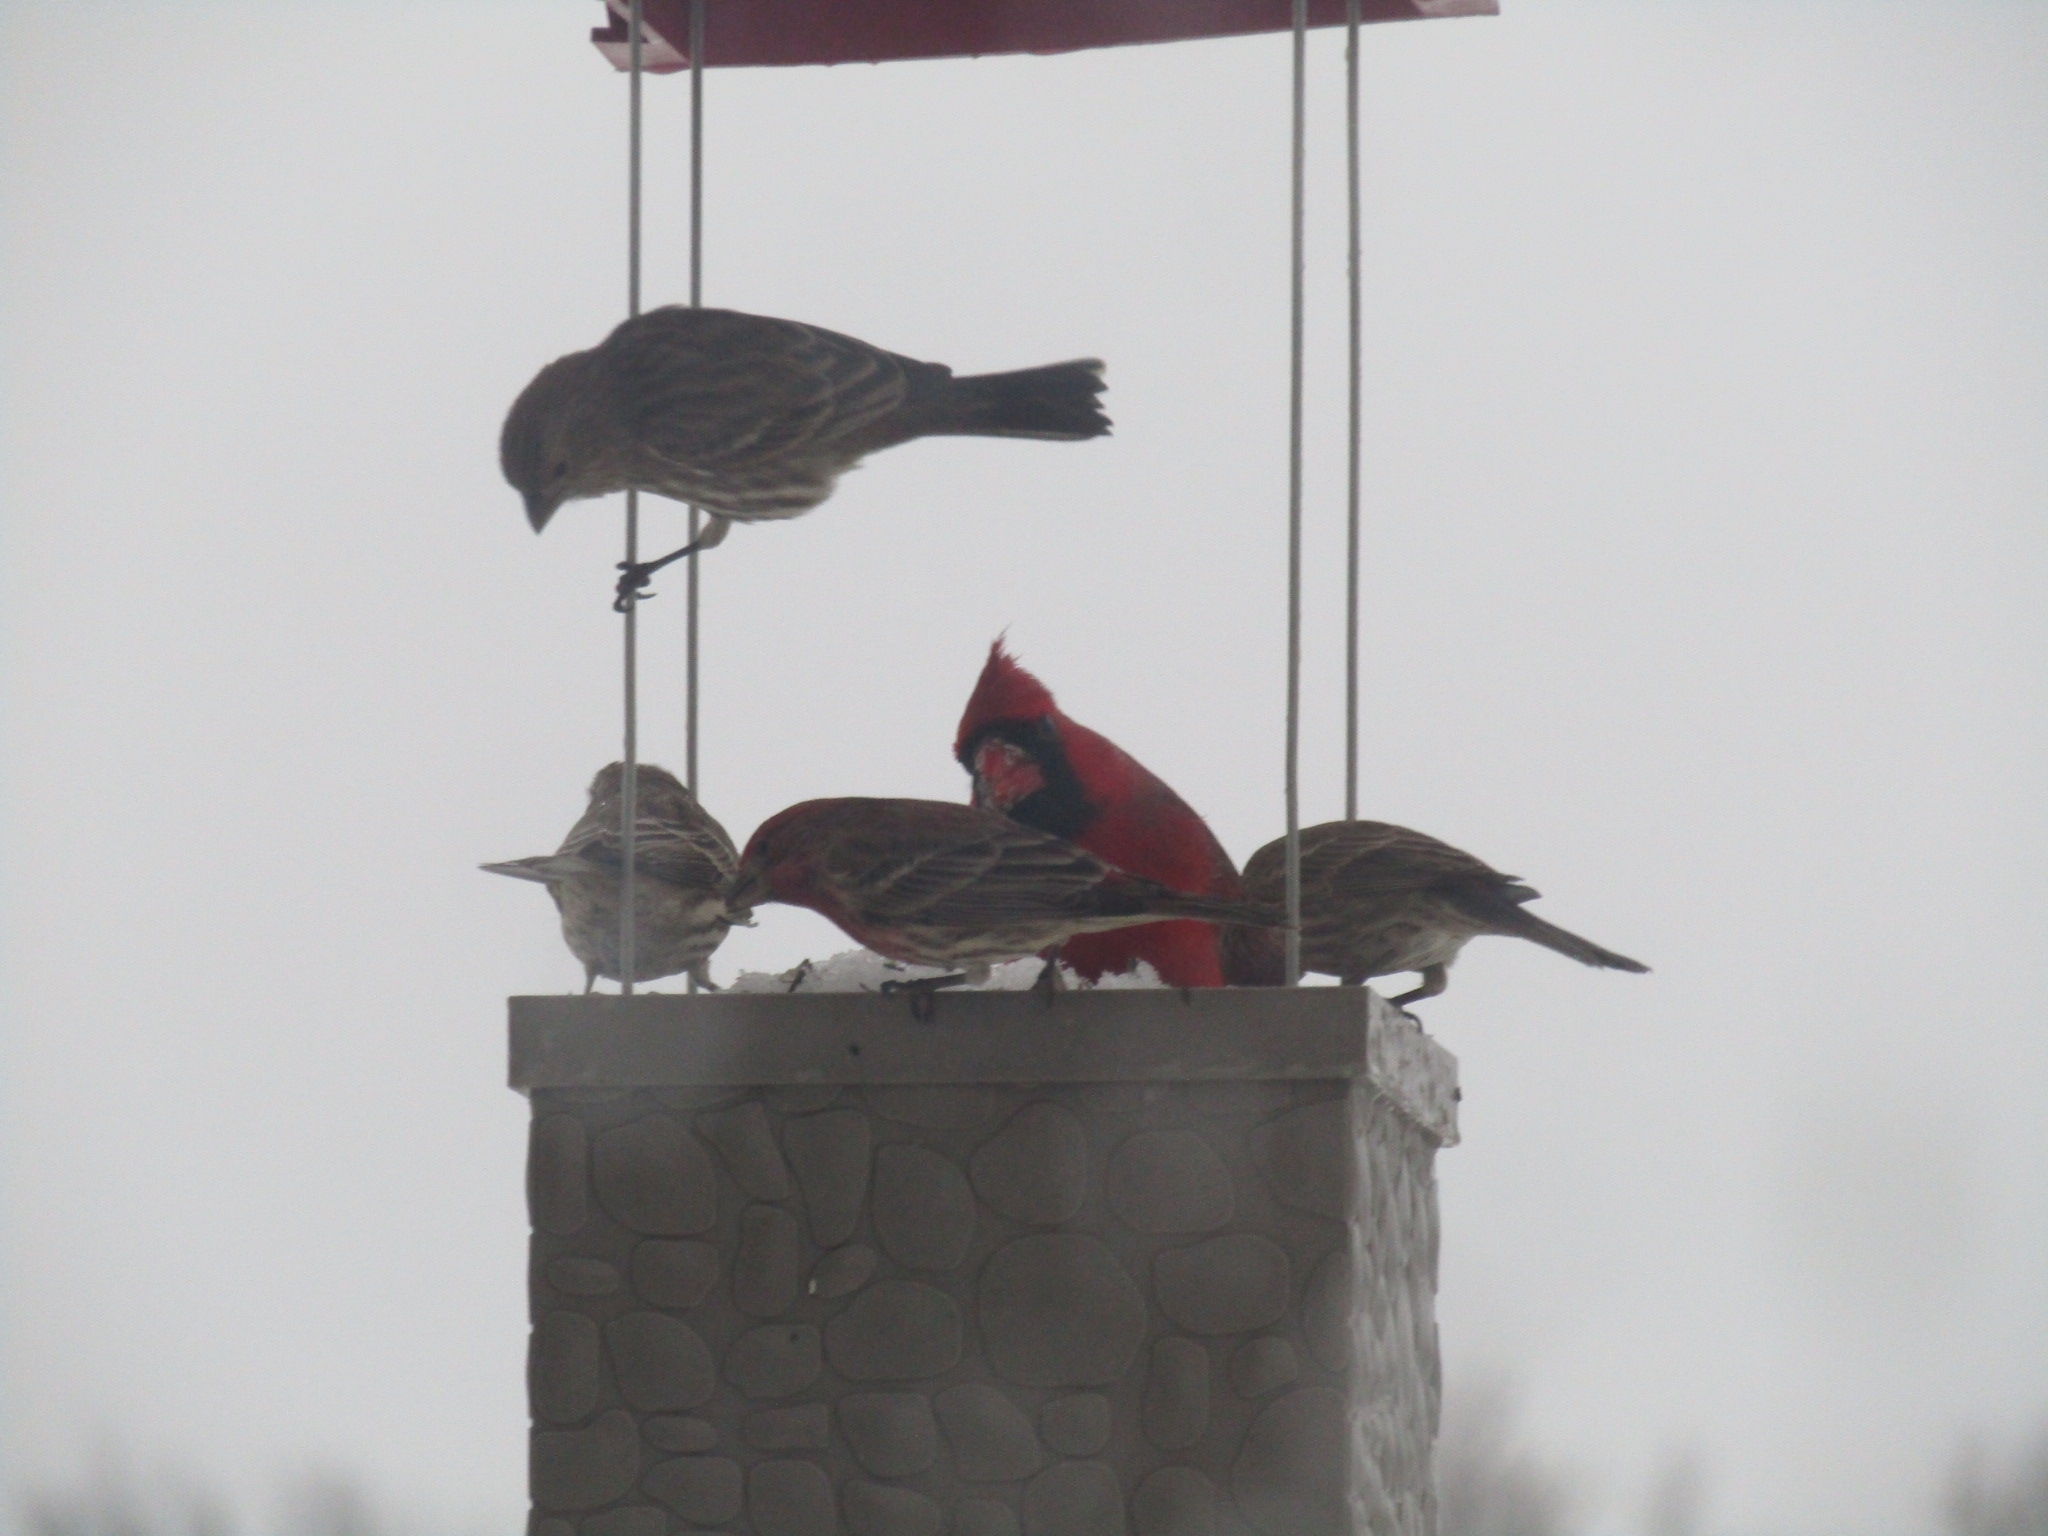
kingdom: Animalia
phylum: Chordata
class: Aves
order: Passeriformes
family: Fringillidae
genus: Haemorhous
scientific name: Haemorhous mexicanus
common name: House finch
